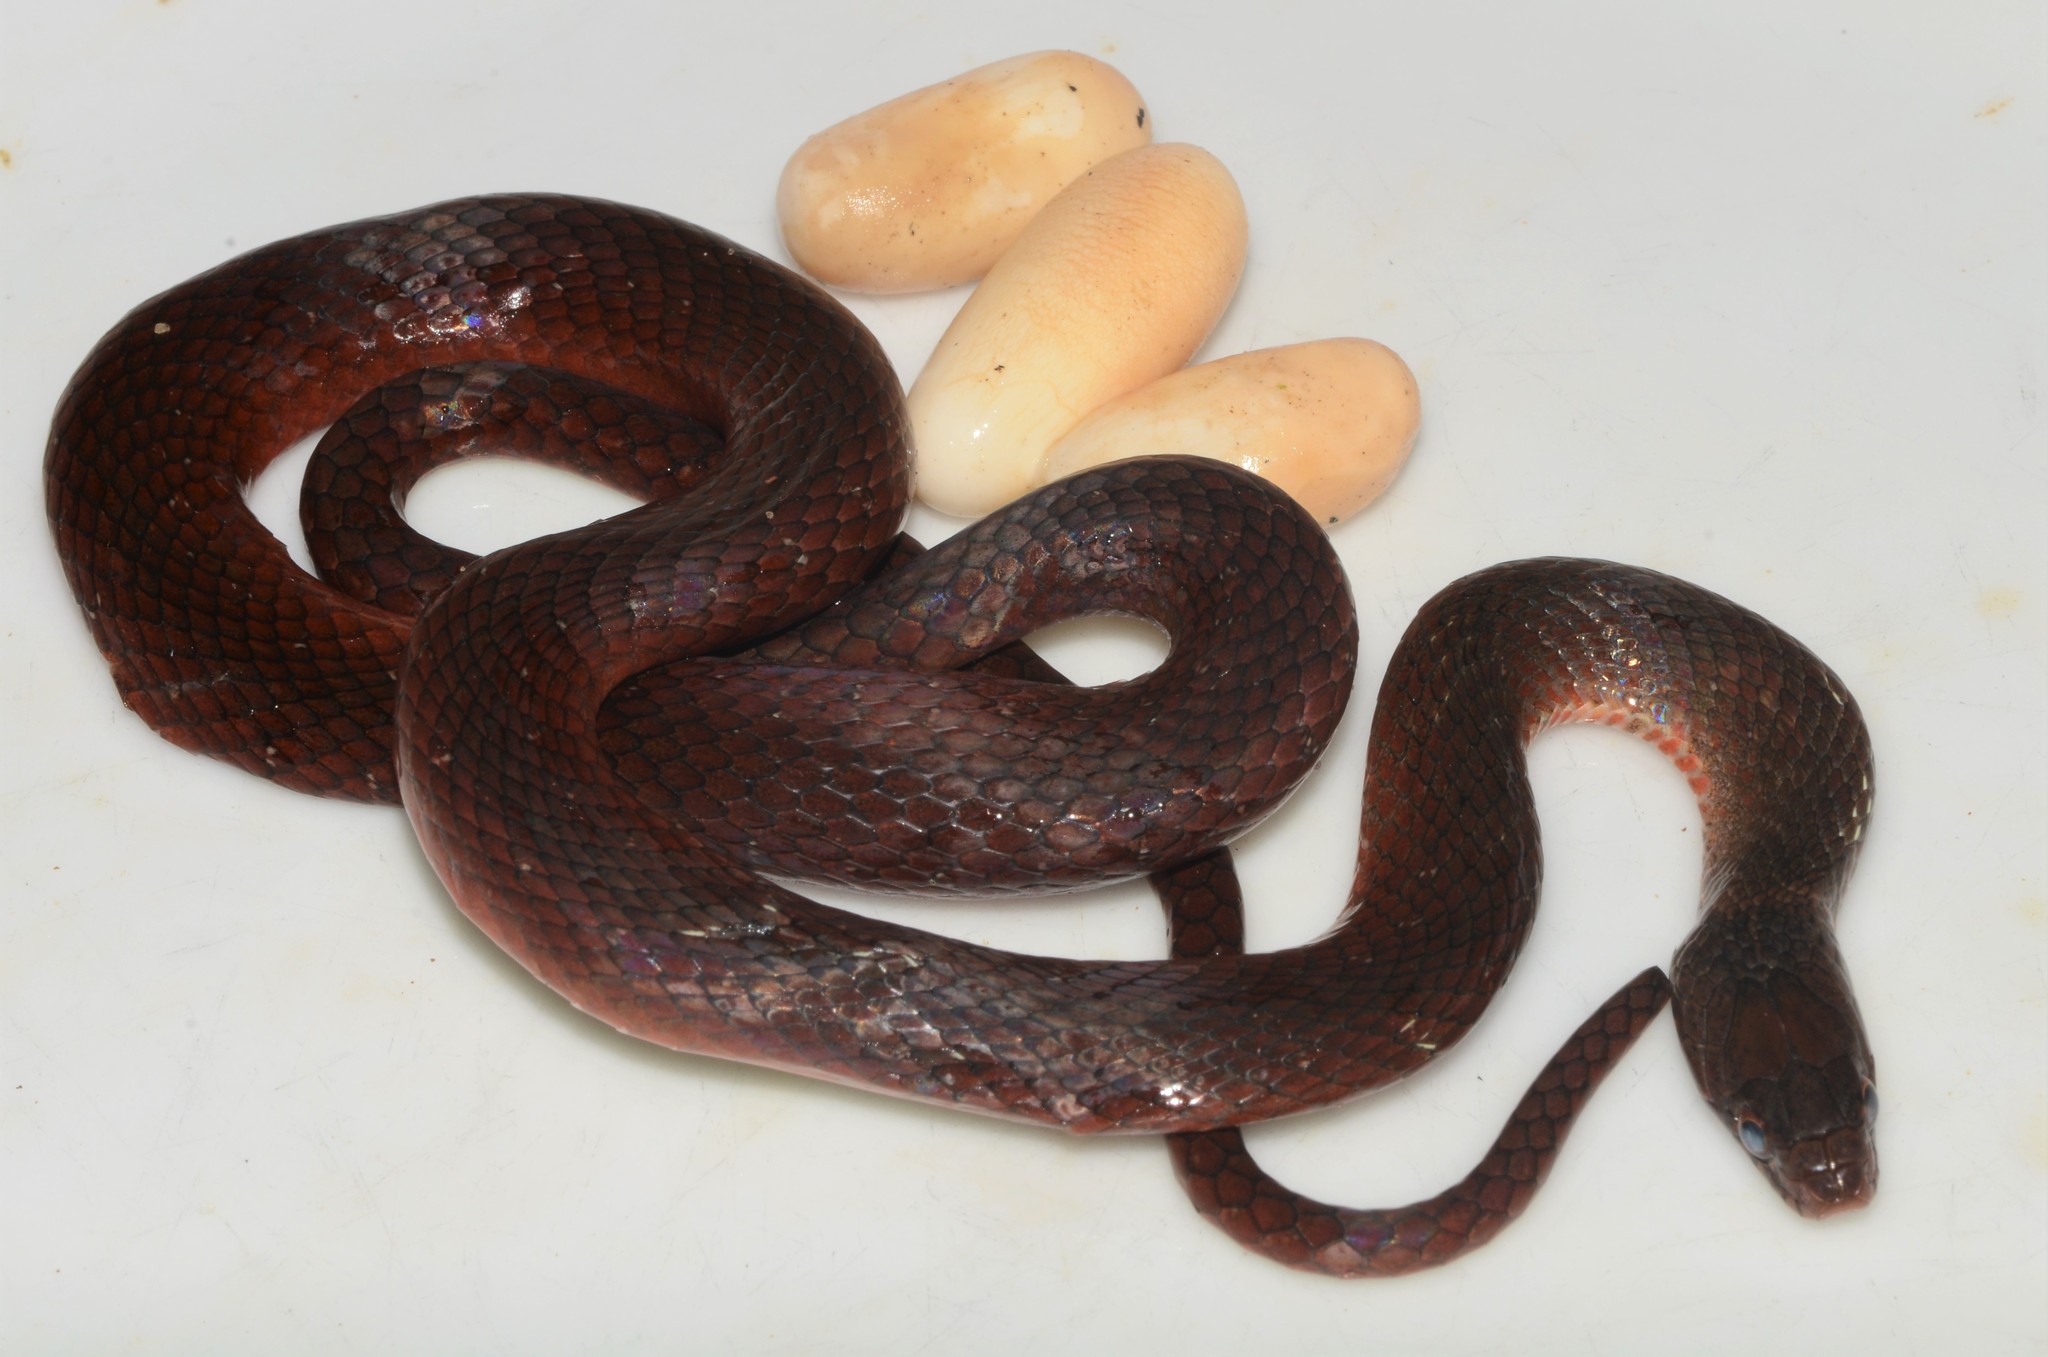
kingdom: Animalia
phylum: Chordata
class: Squamata
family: Colubridae
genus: Natriciteres
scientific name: Natriciteres fuliginoides
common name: Collared marsh-snake
